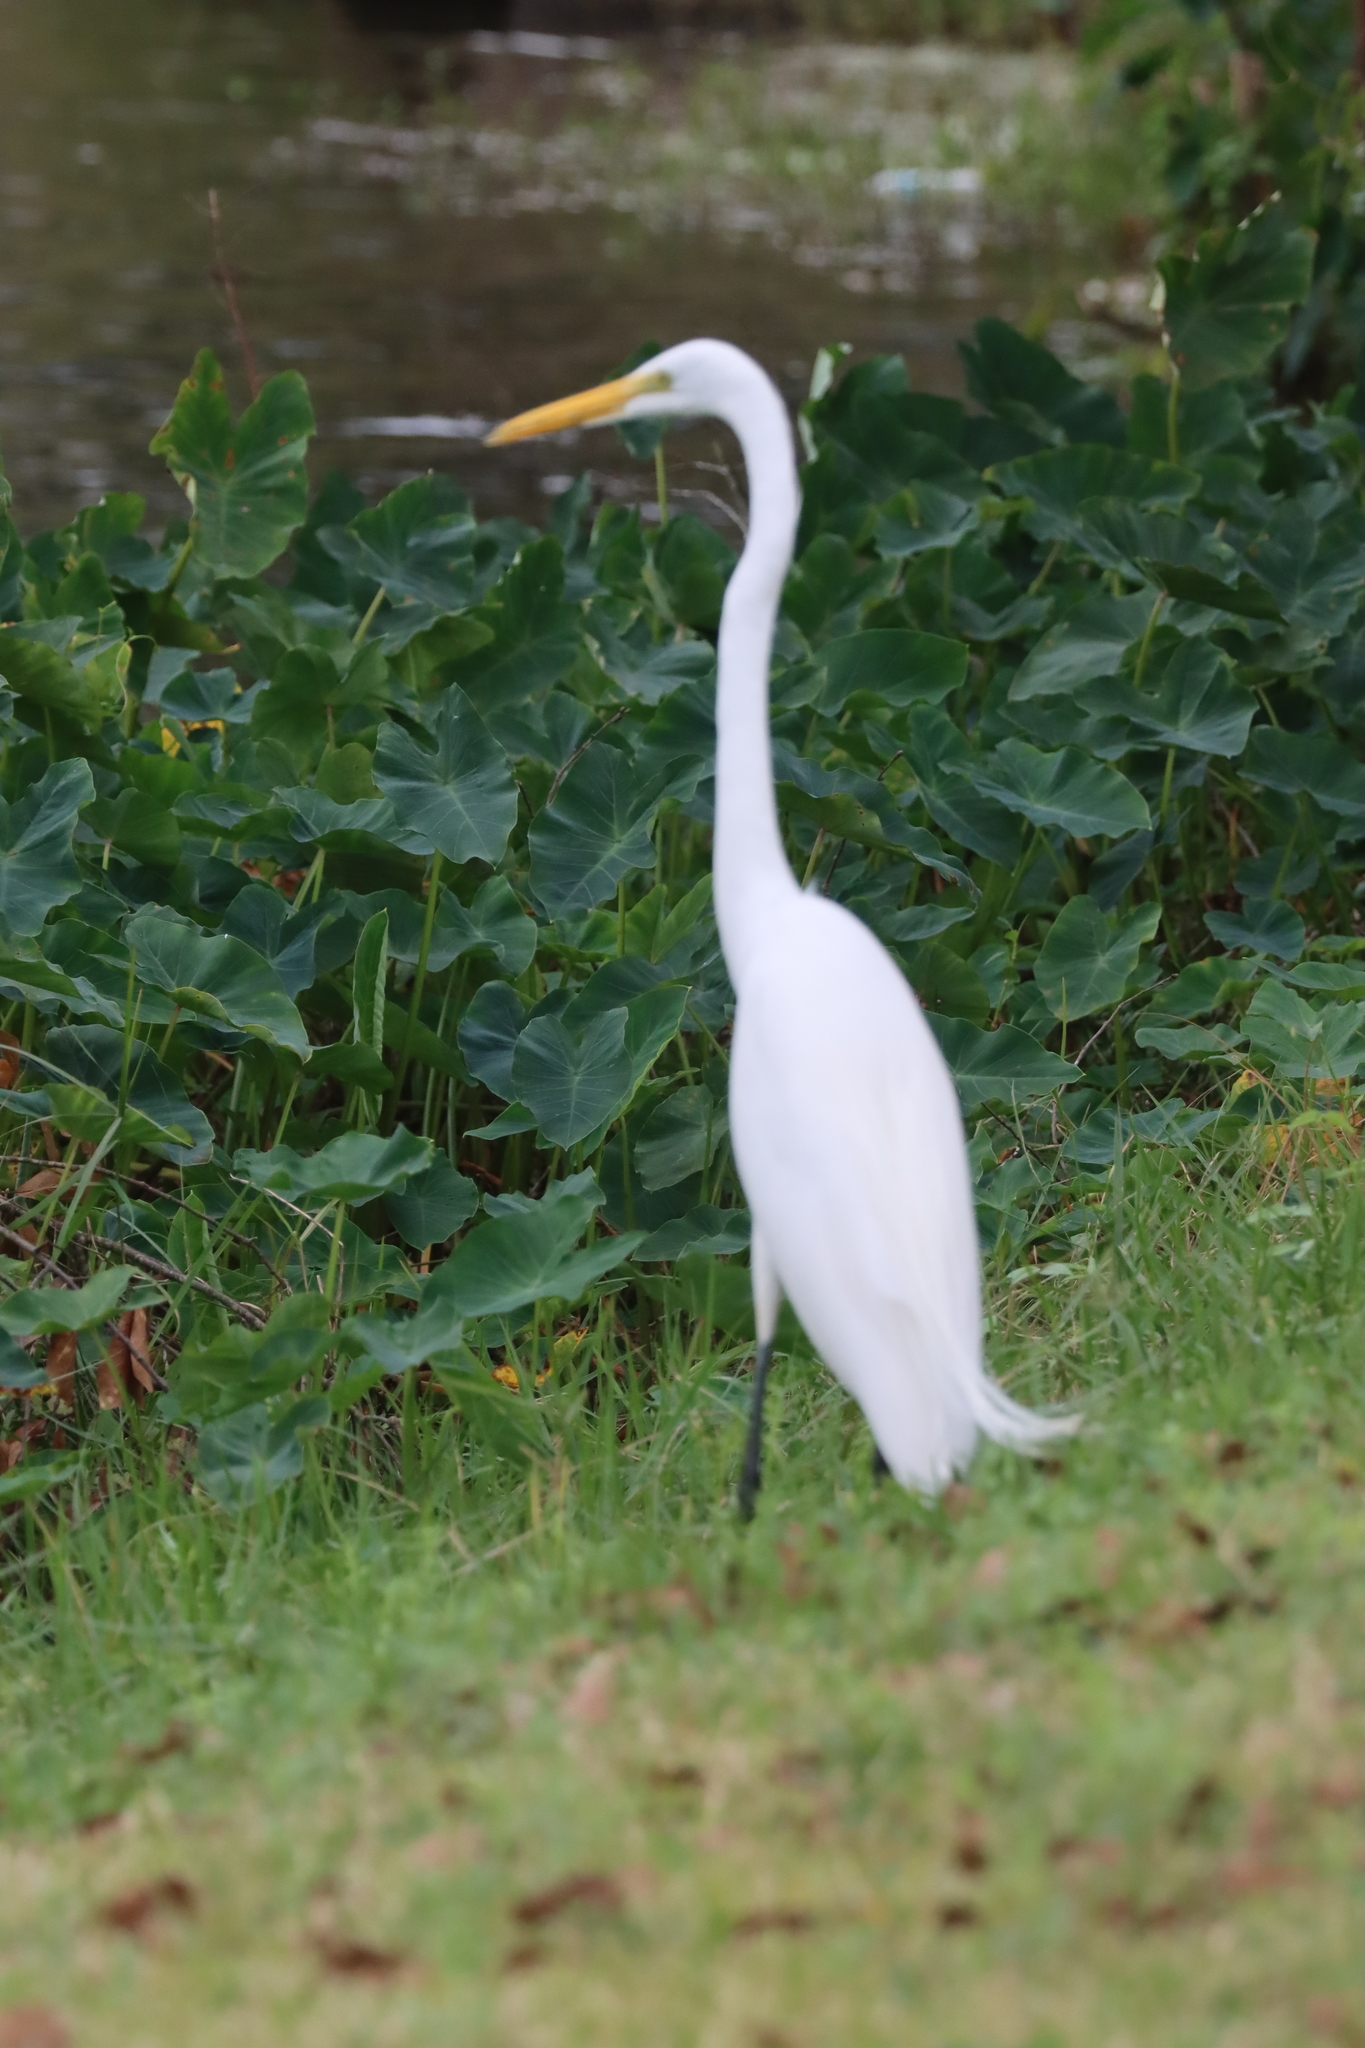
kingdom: Animalia
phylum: Chordata
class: Aves
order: Pelecaniformes
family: Ardeidae
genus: Ardea
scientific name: Ardea alba
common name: Great egret
